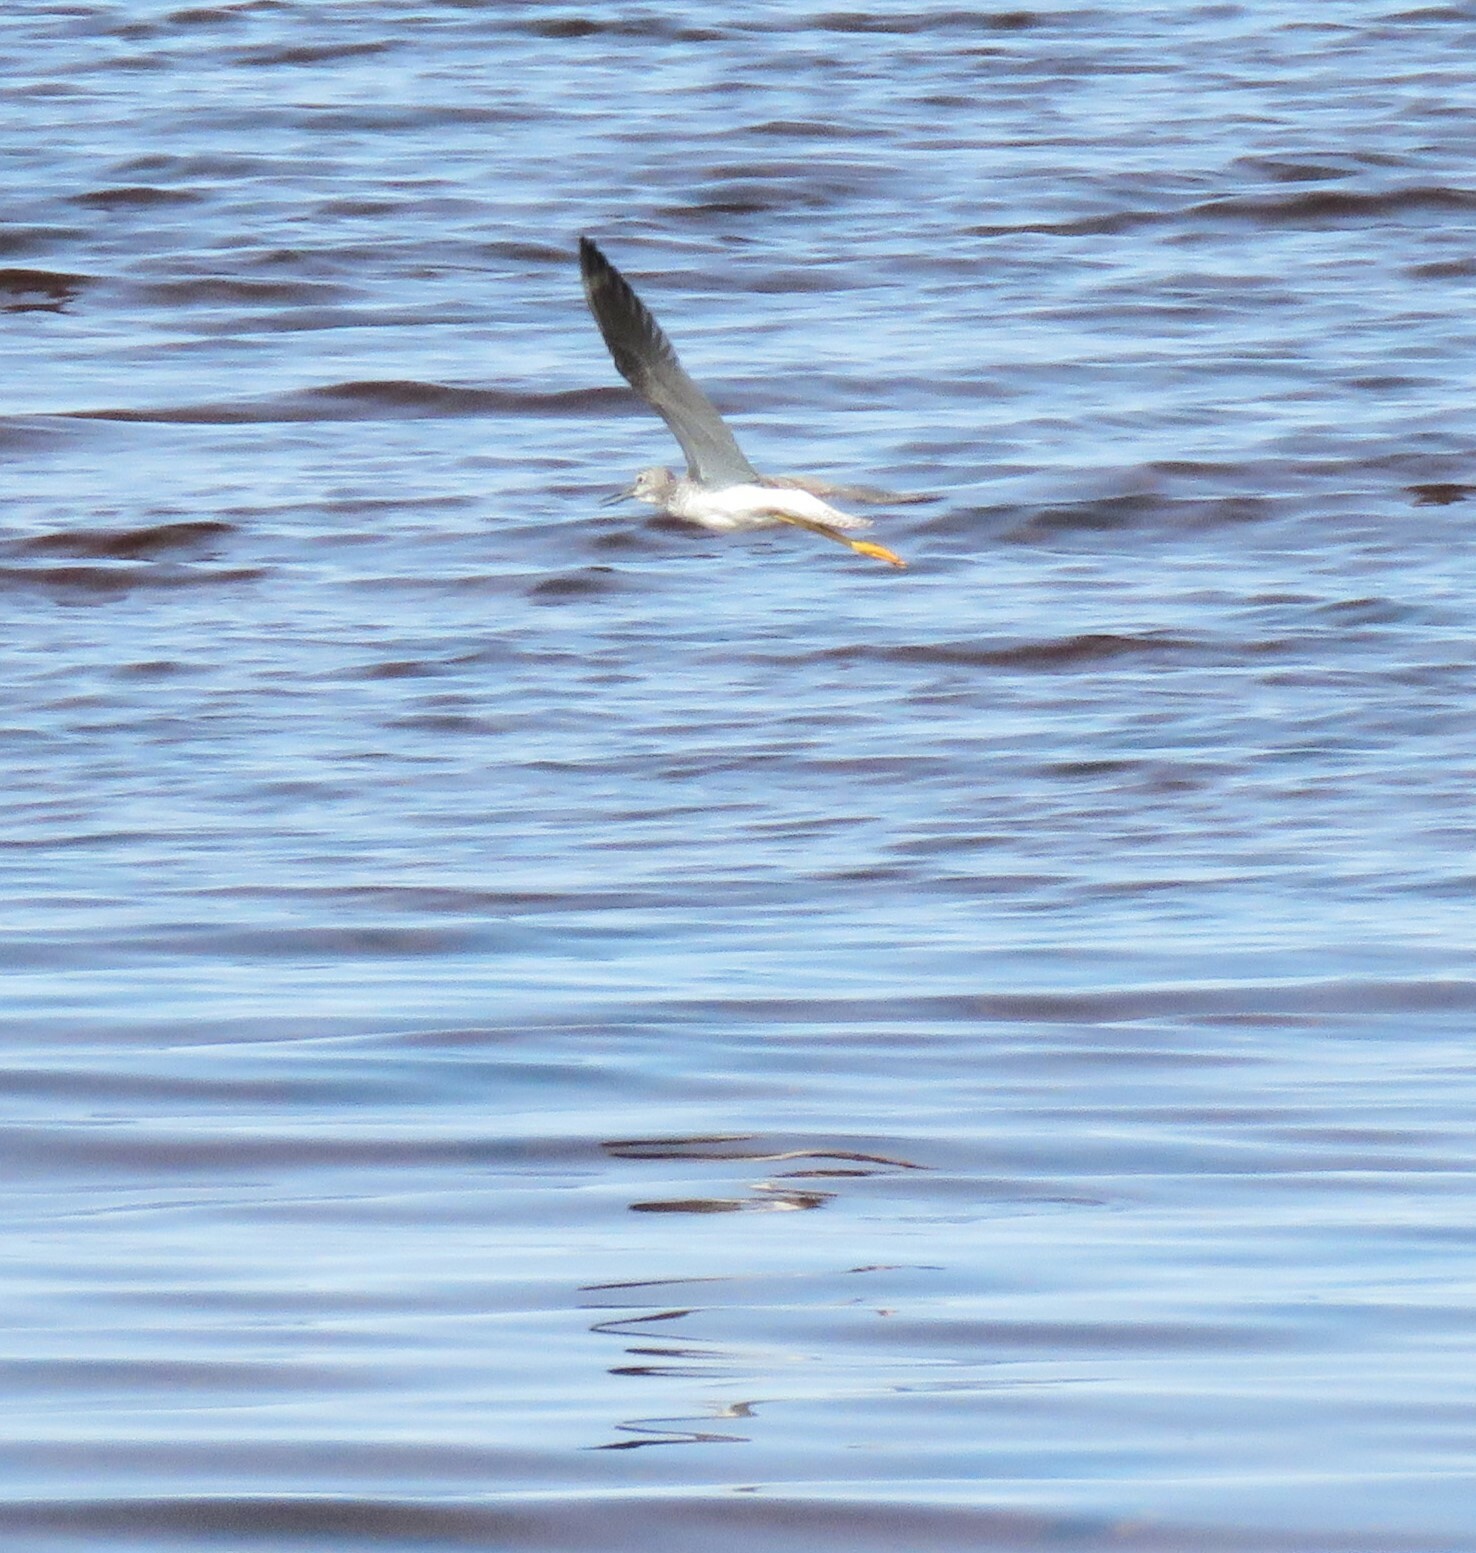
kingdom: Animalia
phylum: Chordata
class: Aves
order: Charadriiformes
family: Scolopacidae
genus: Tringa
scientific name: Tringa melanoleuca
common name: Greater yellowlegs
